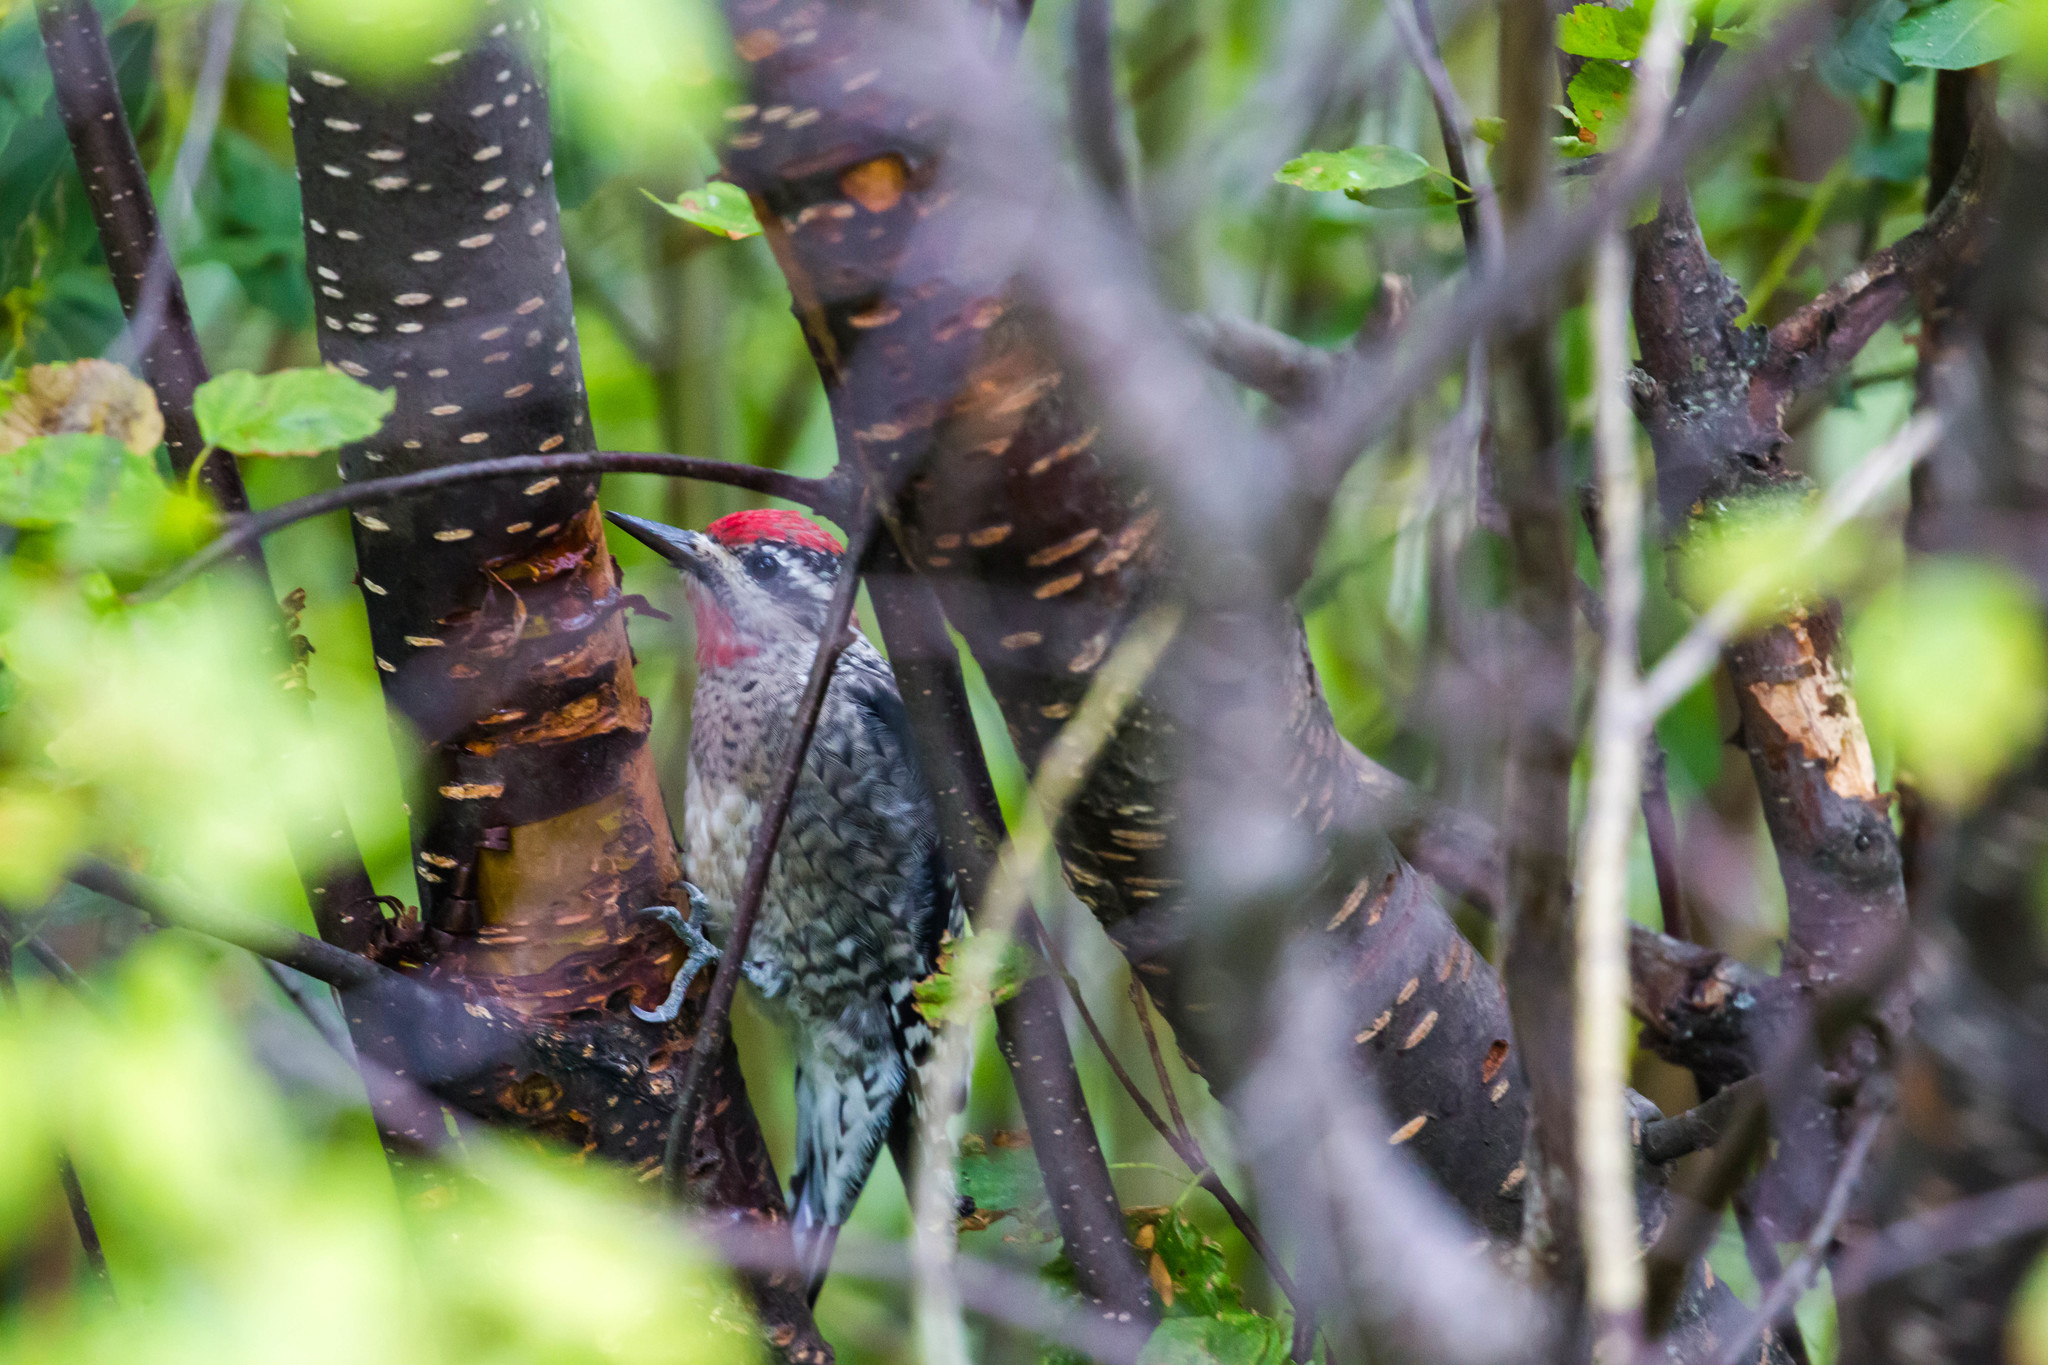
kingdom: Animalia
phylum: Chordata
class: Aves
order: Piciformes
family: Picidae
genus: Sphyrapicus
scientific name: Sphyrapicus nuchalis
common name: Red-naped sapsucker
